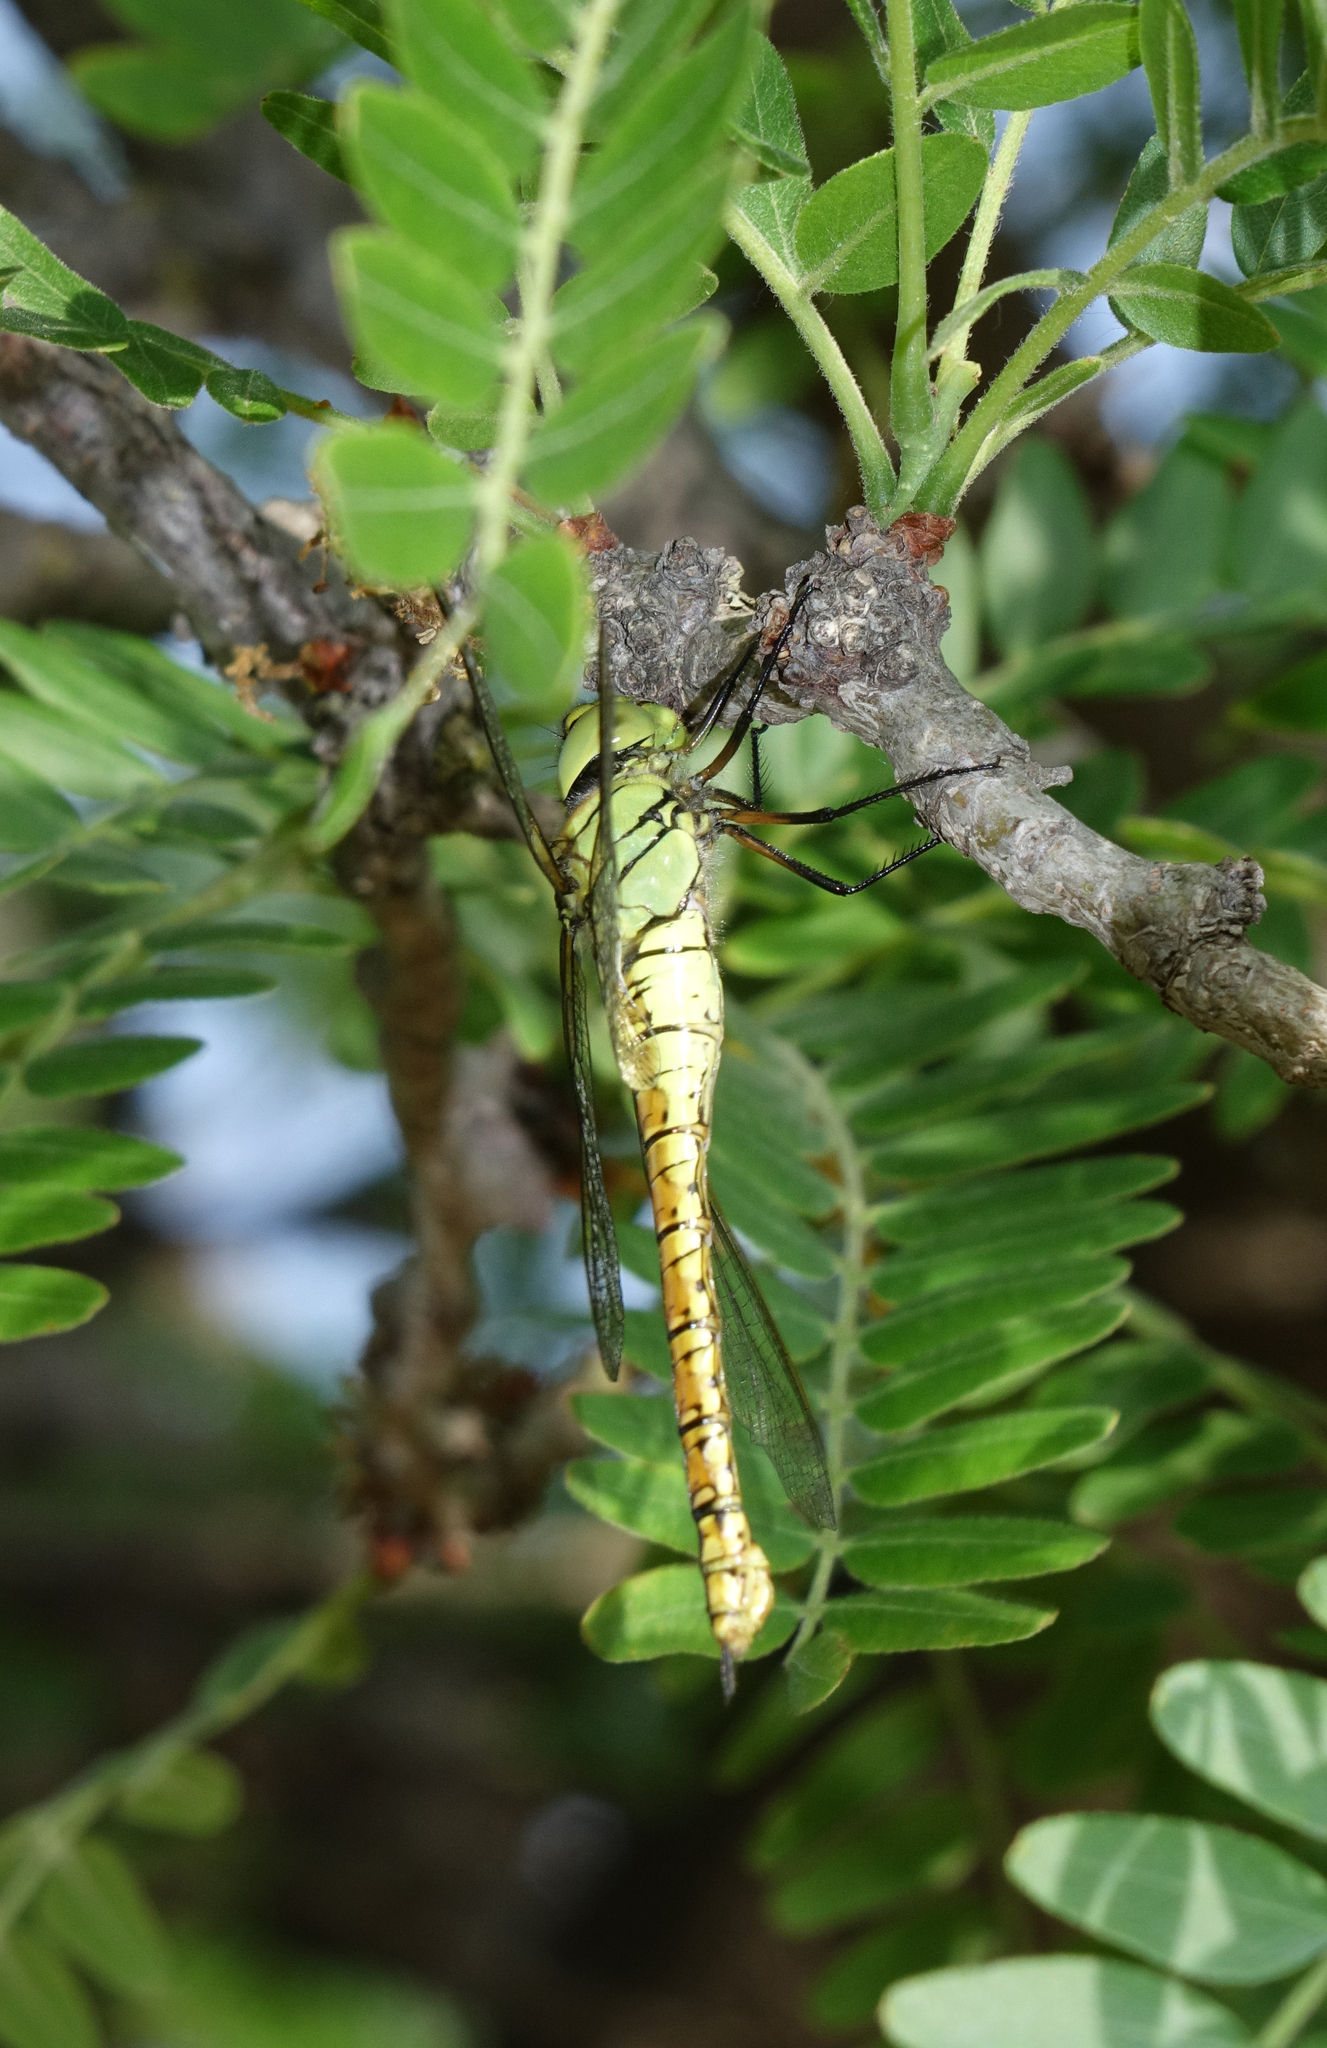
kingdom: Animalia
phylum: Arthropoda
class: Insecta
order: Odonata
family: Aeshnidae
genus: Aeshna
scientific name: Aeshna affinis
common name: Southern migrant hawker
